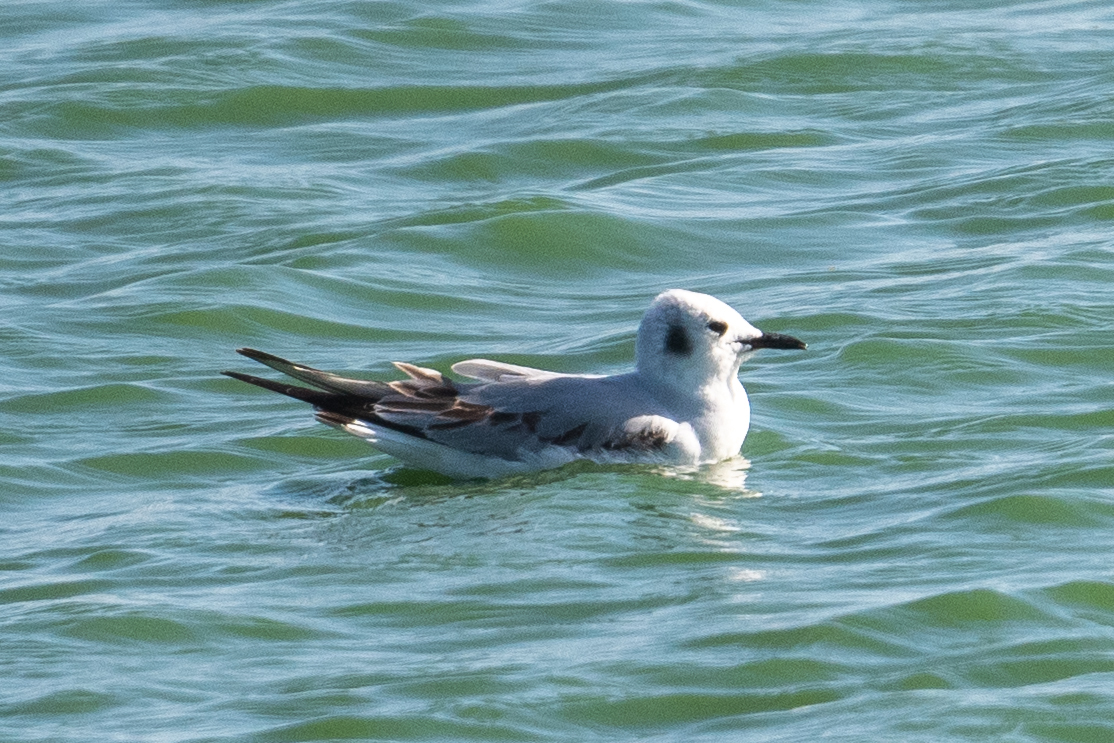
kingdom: Animalia
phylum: Chordata
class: Aves
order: Charadriiformes
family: Laridae
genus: Chroicocephalus
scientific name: Chroicocephalus philadelphia
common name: Bonaparte's gull
